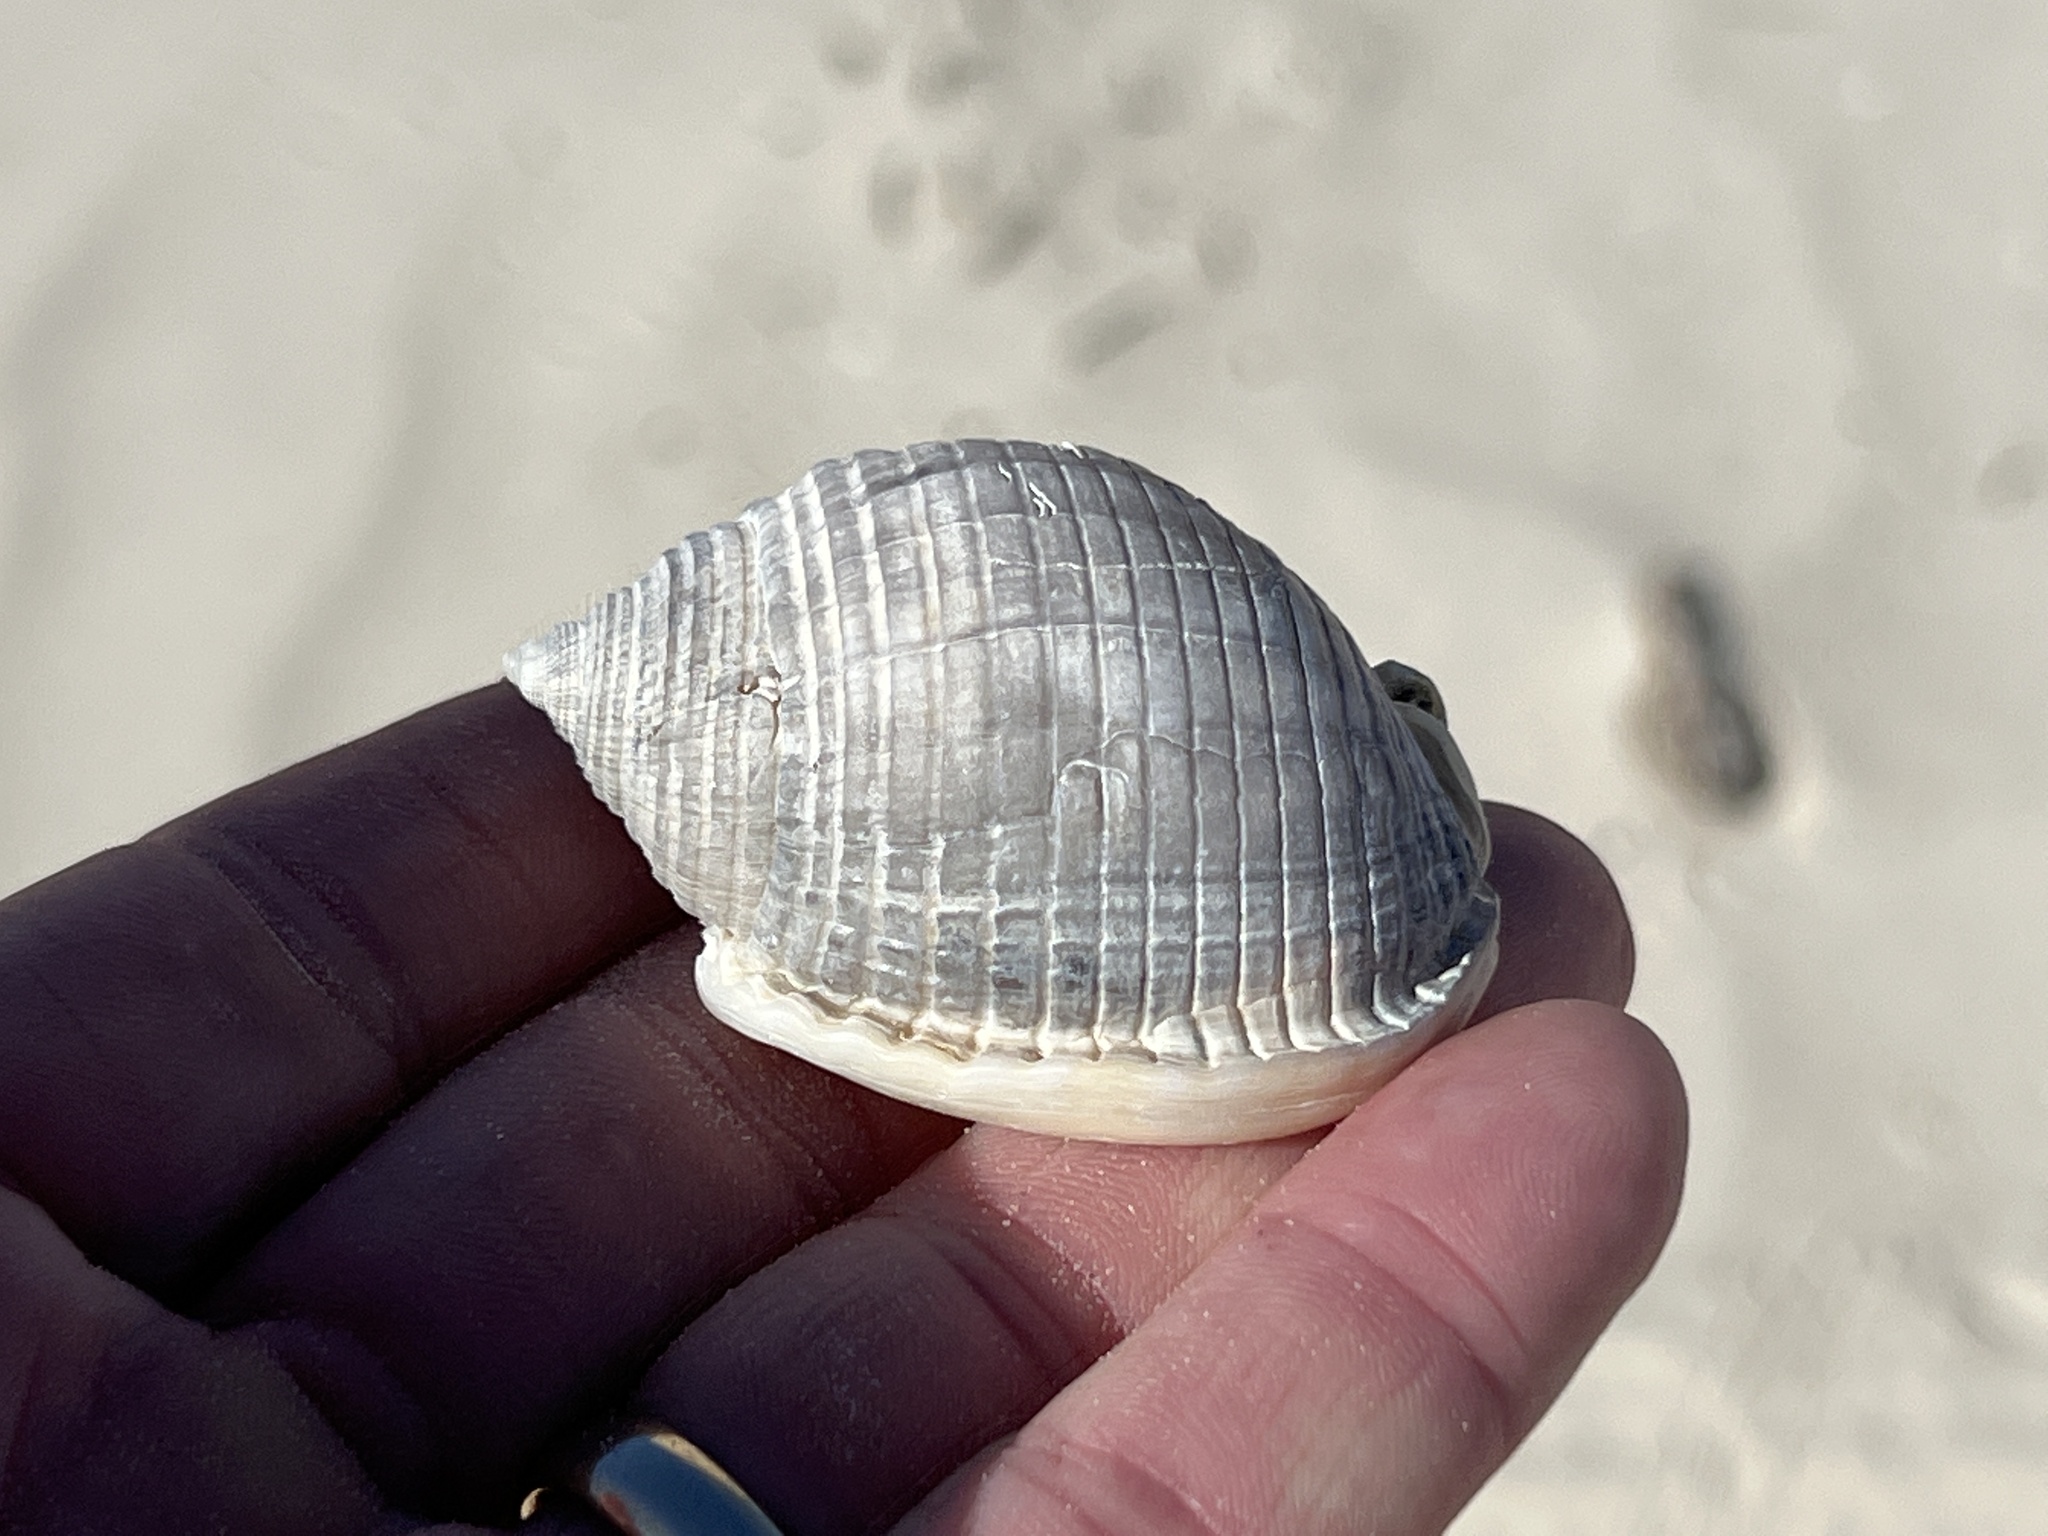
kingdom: Animalia
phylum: Mollusca
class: Gastropoda
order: Littorinimorpha
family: Cassidae
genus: Semicassis
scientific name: Semicassis granulata
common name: Scotch bonnet
